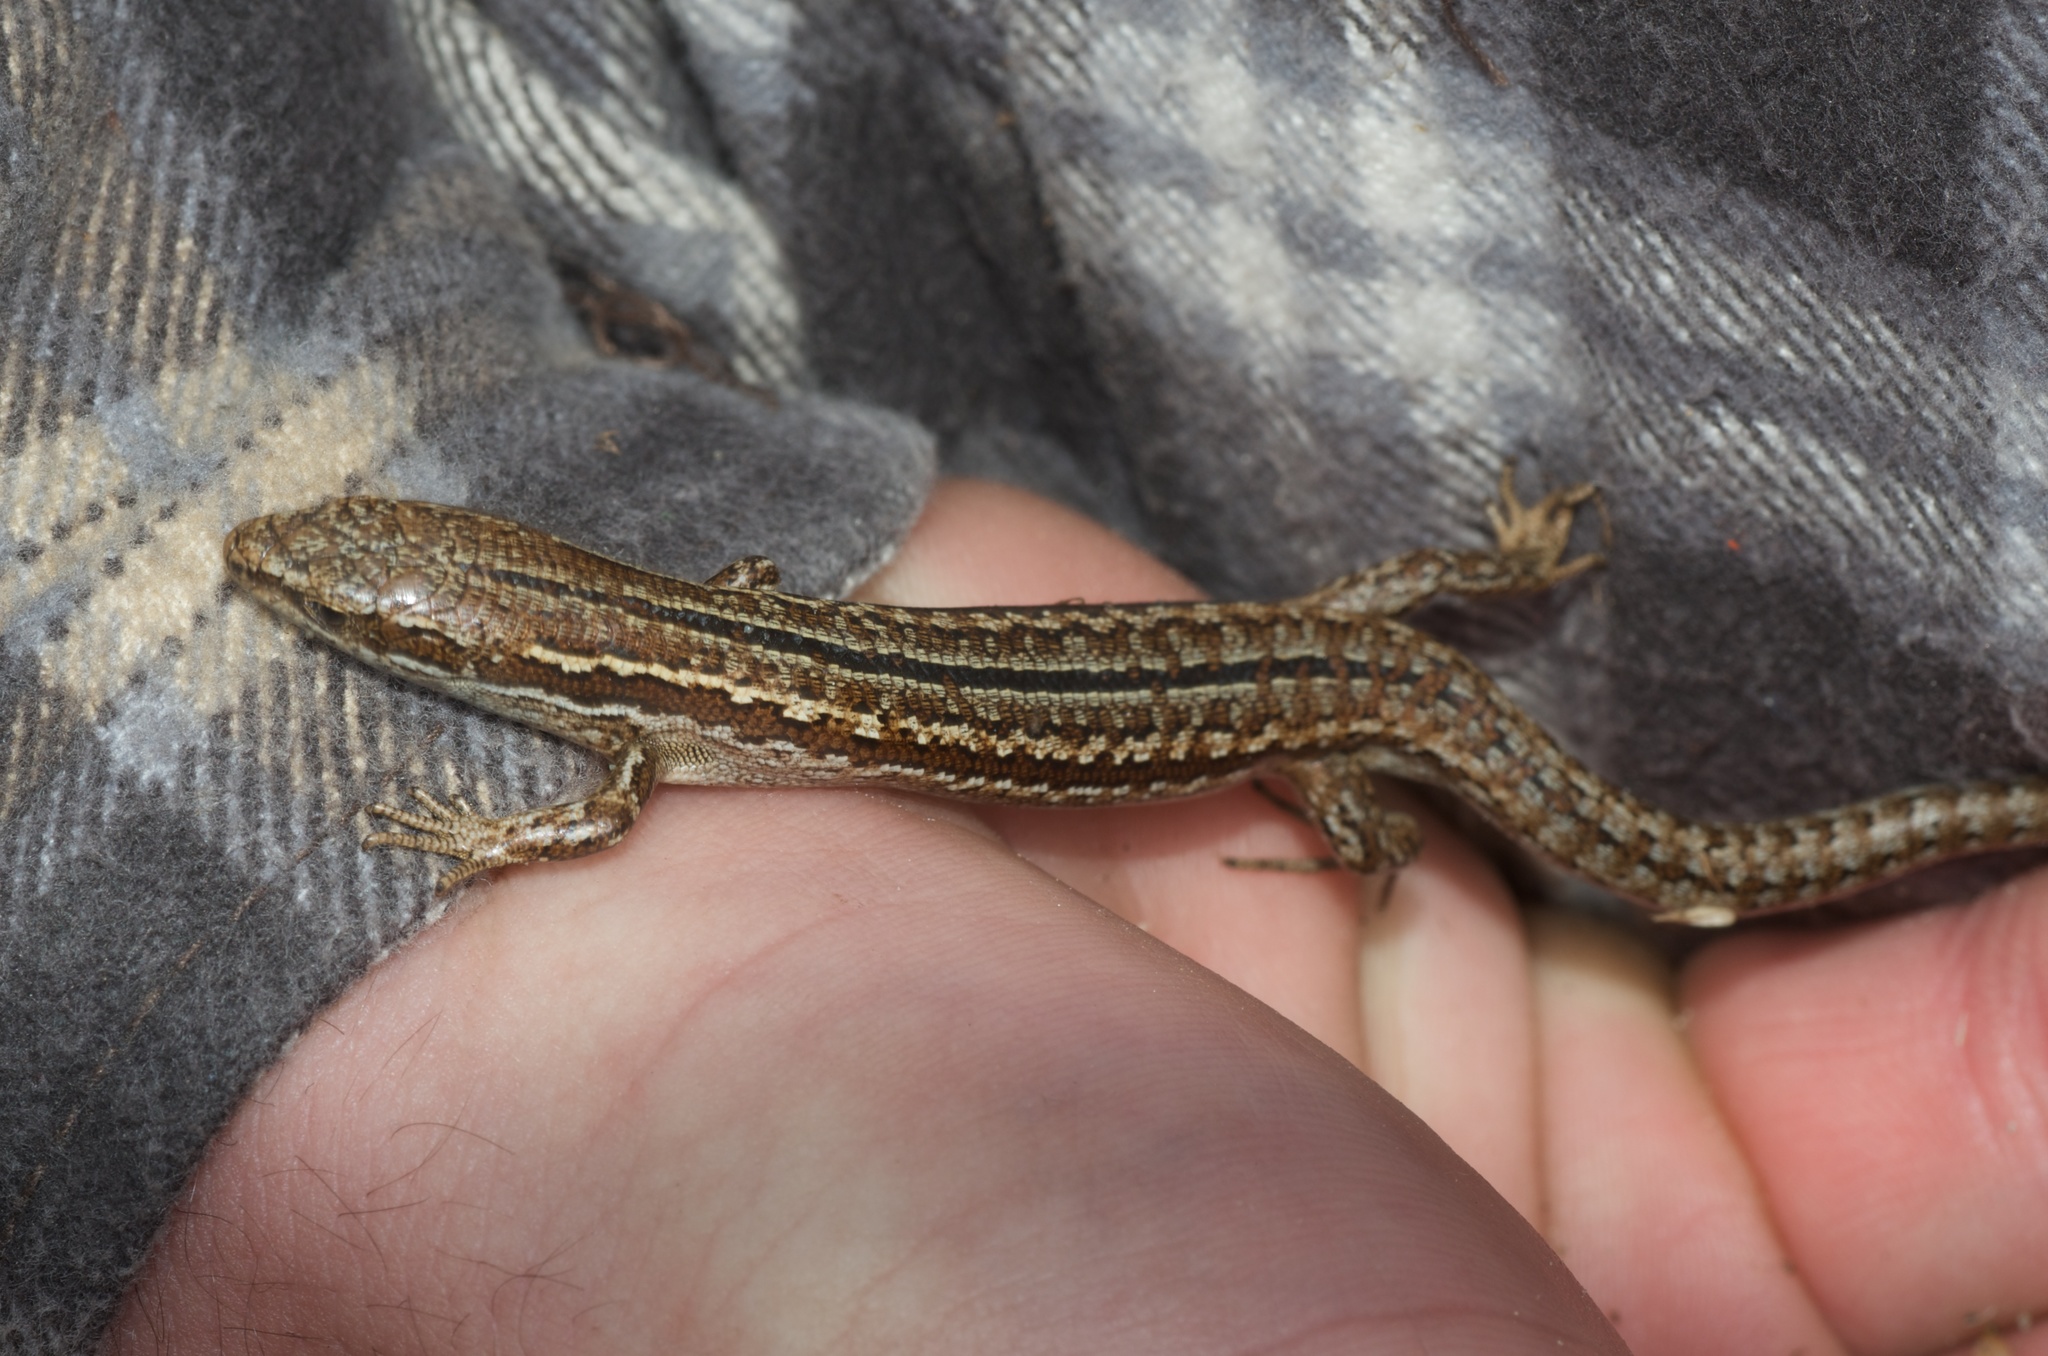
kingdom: Animalia
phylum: Chordata
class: Squamata
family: Scincidae
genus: Oligosoma
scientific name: Oligosoma maccanni
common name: Mccann’s skink
